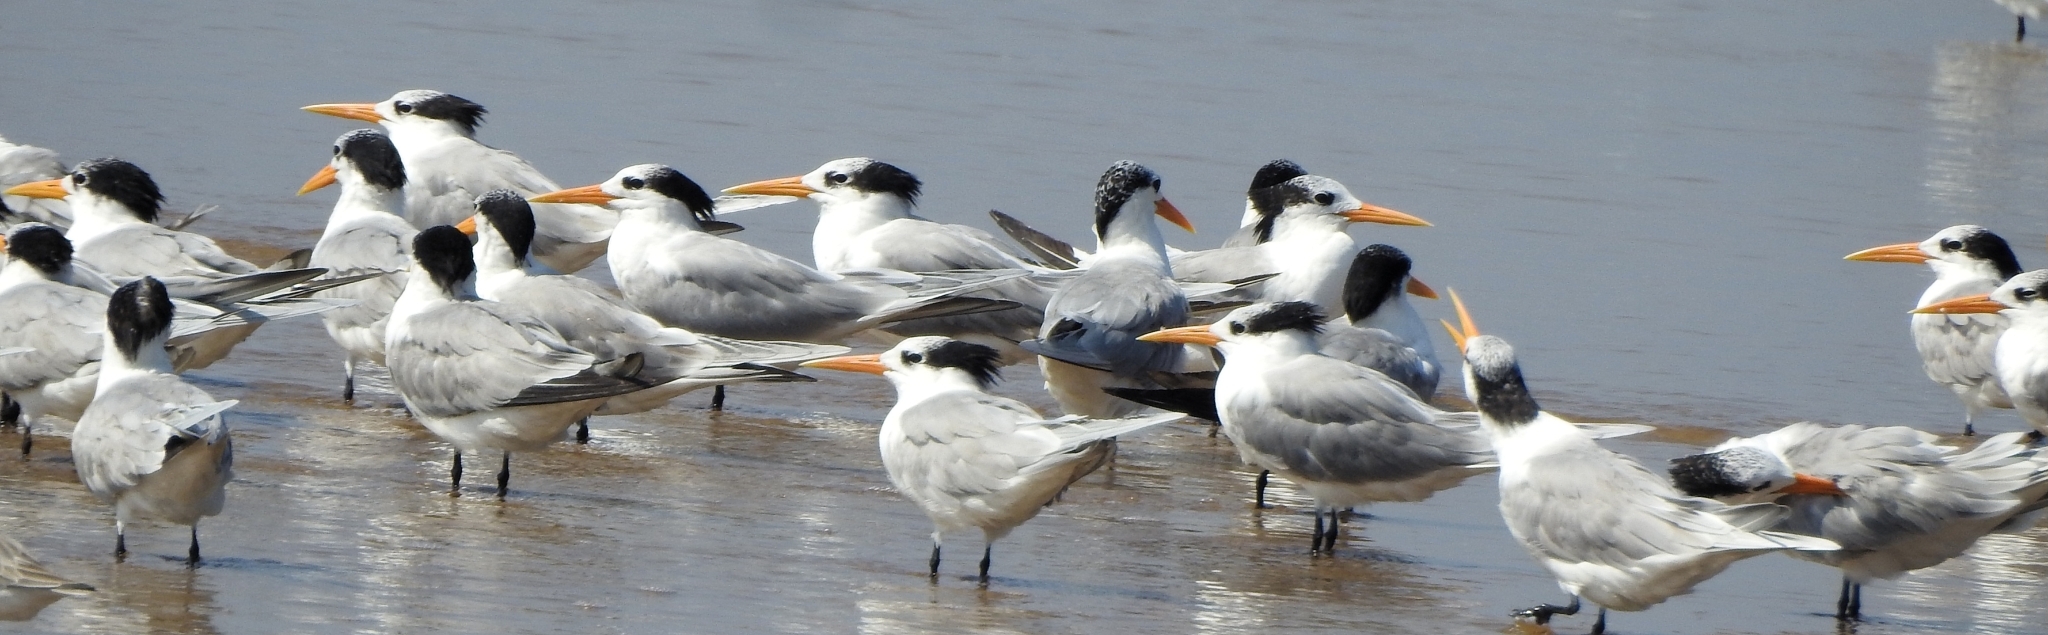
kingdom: Animalia
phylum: Chordata
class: Aves
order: Charadriiformes
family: Laridae
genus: Thalasseus
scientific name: Thalasseus bengalensis
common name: Lesser crested tern
